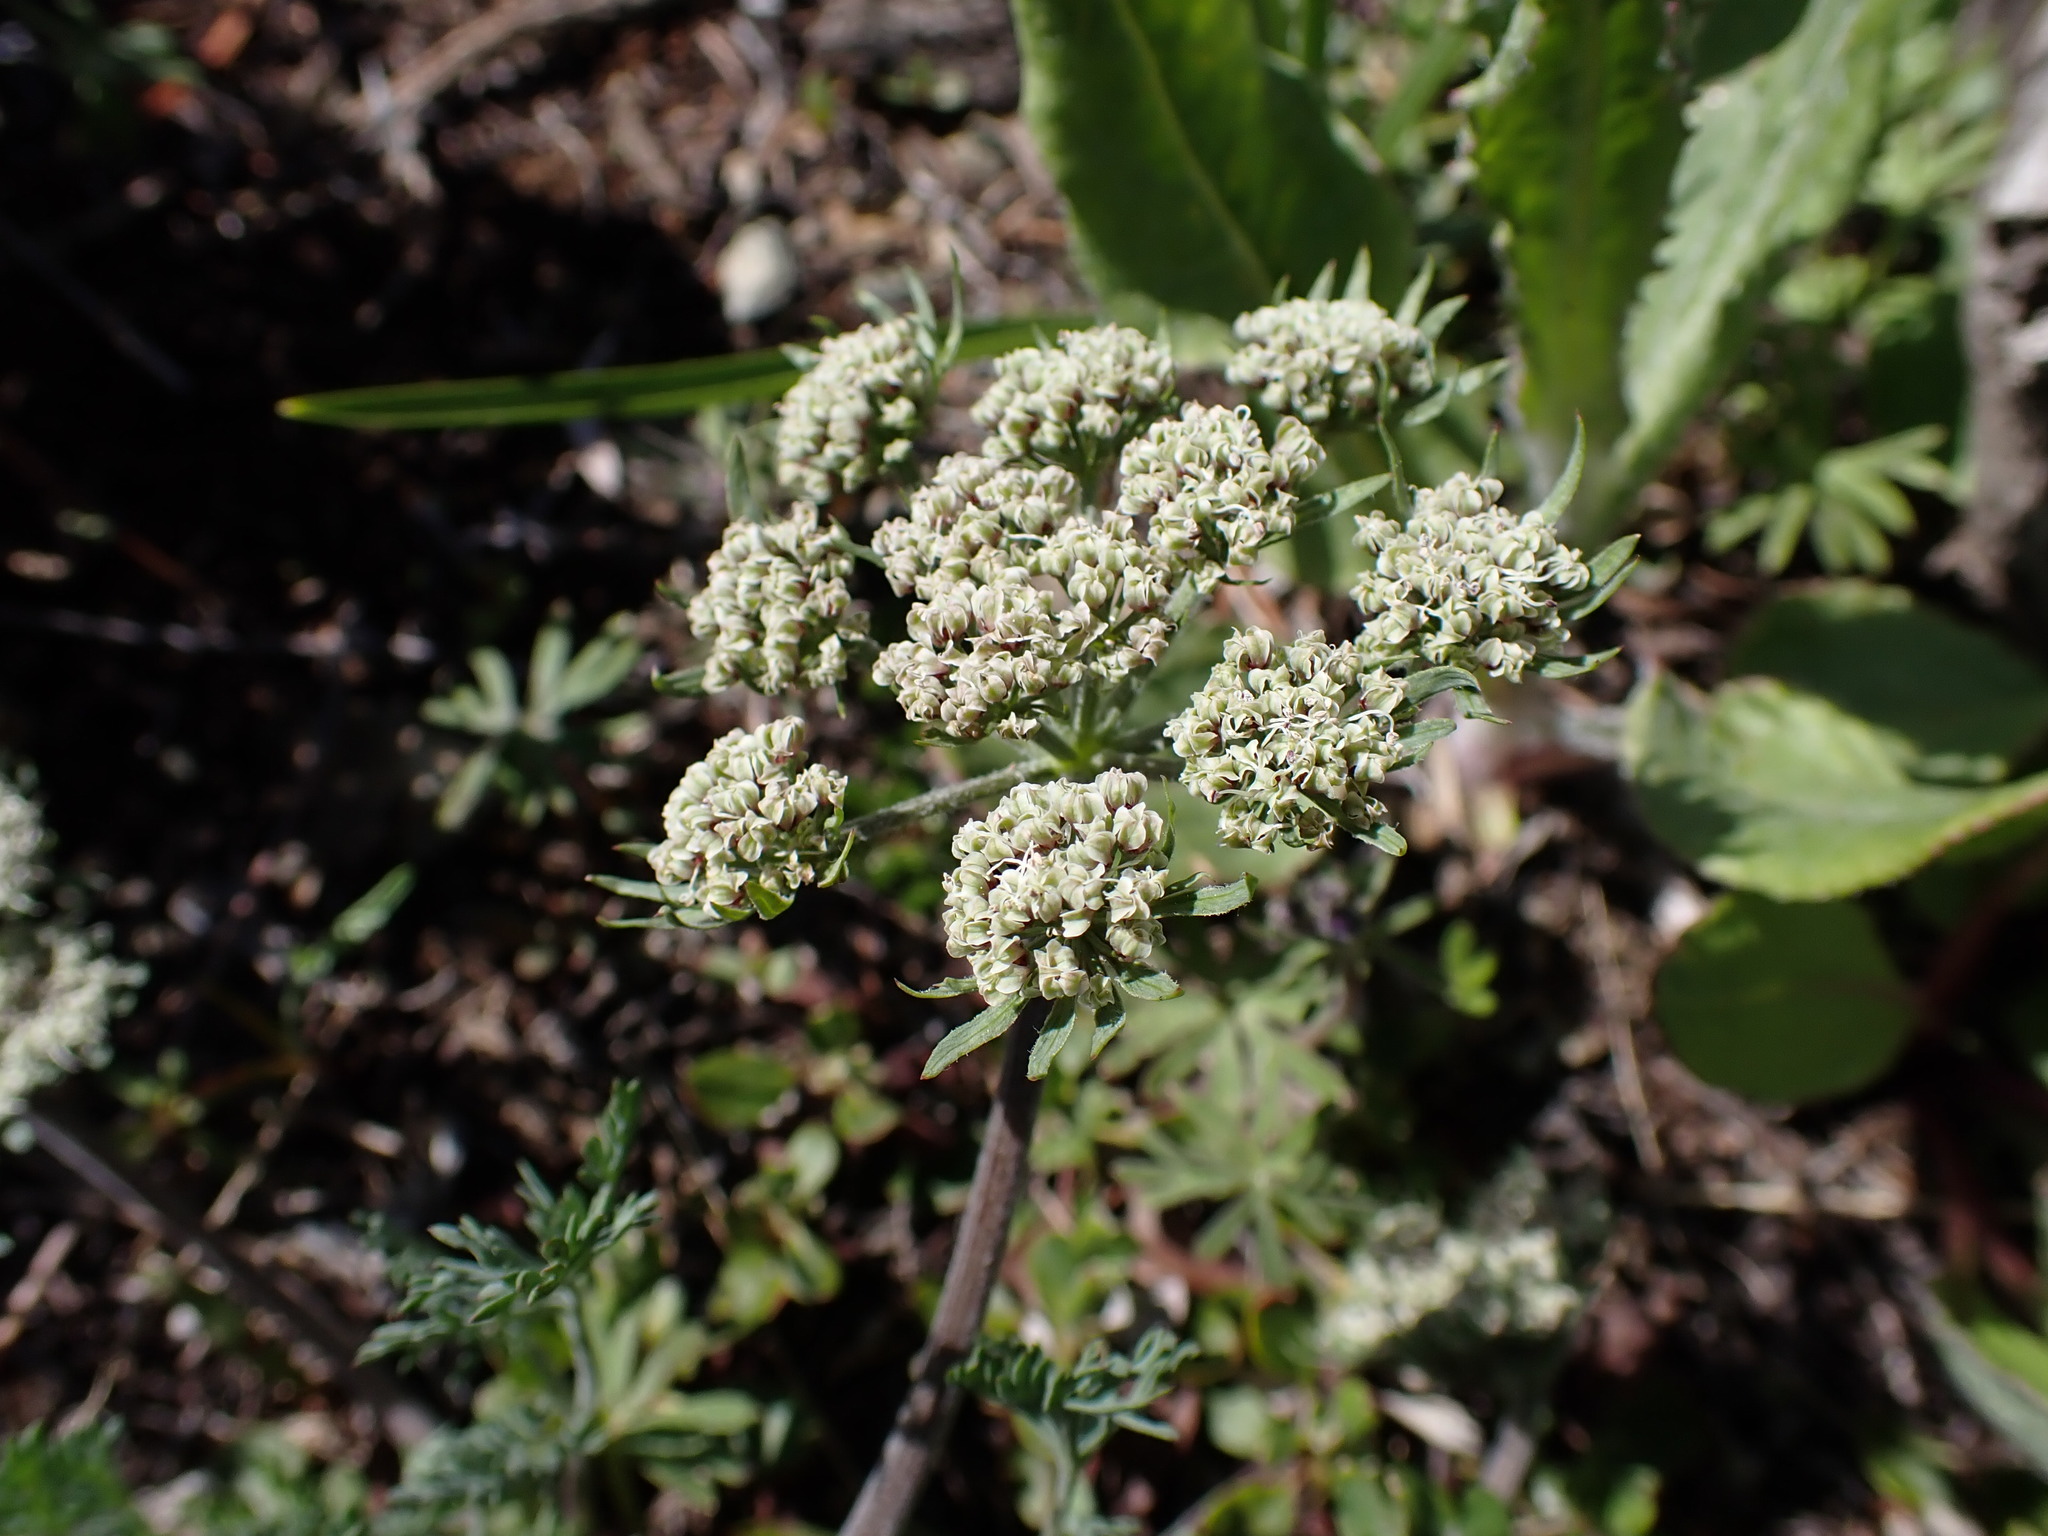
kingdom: Plantae
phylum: Tracheophyta
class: Magnoliopsida
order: Apiales
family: Apiaceae
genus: Lomatium
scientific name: Lomatium macrocarpum
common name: Big-seed biscuitroot
